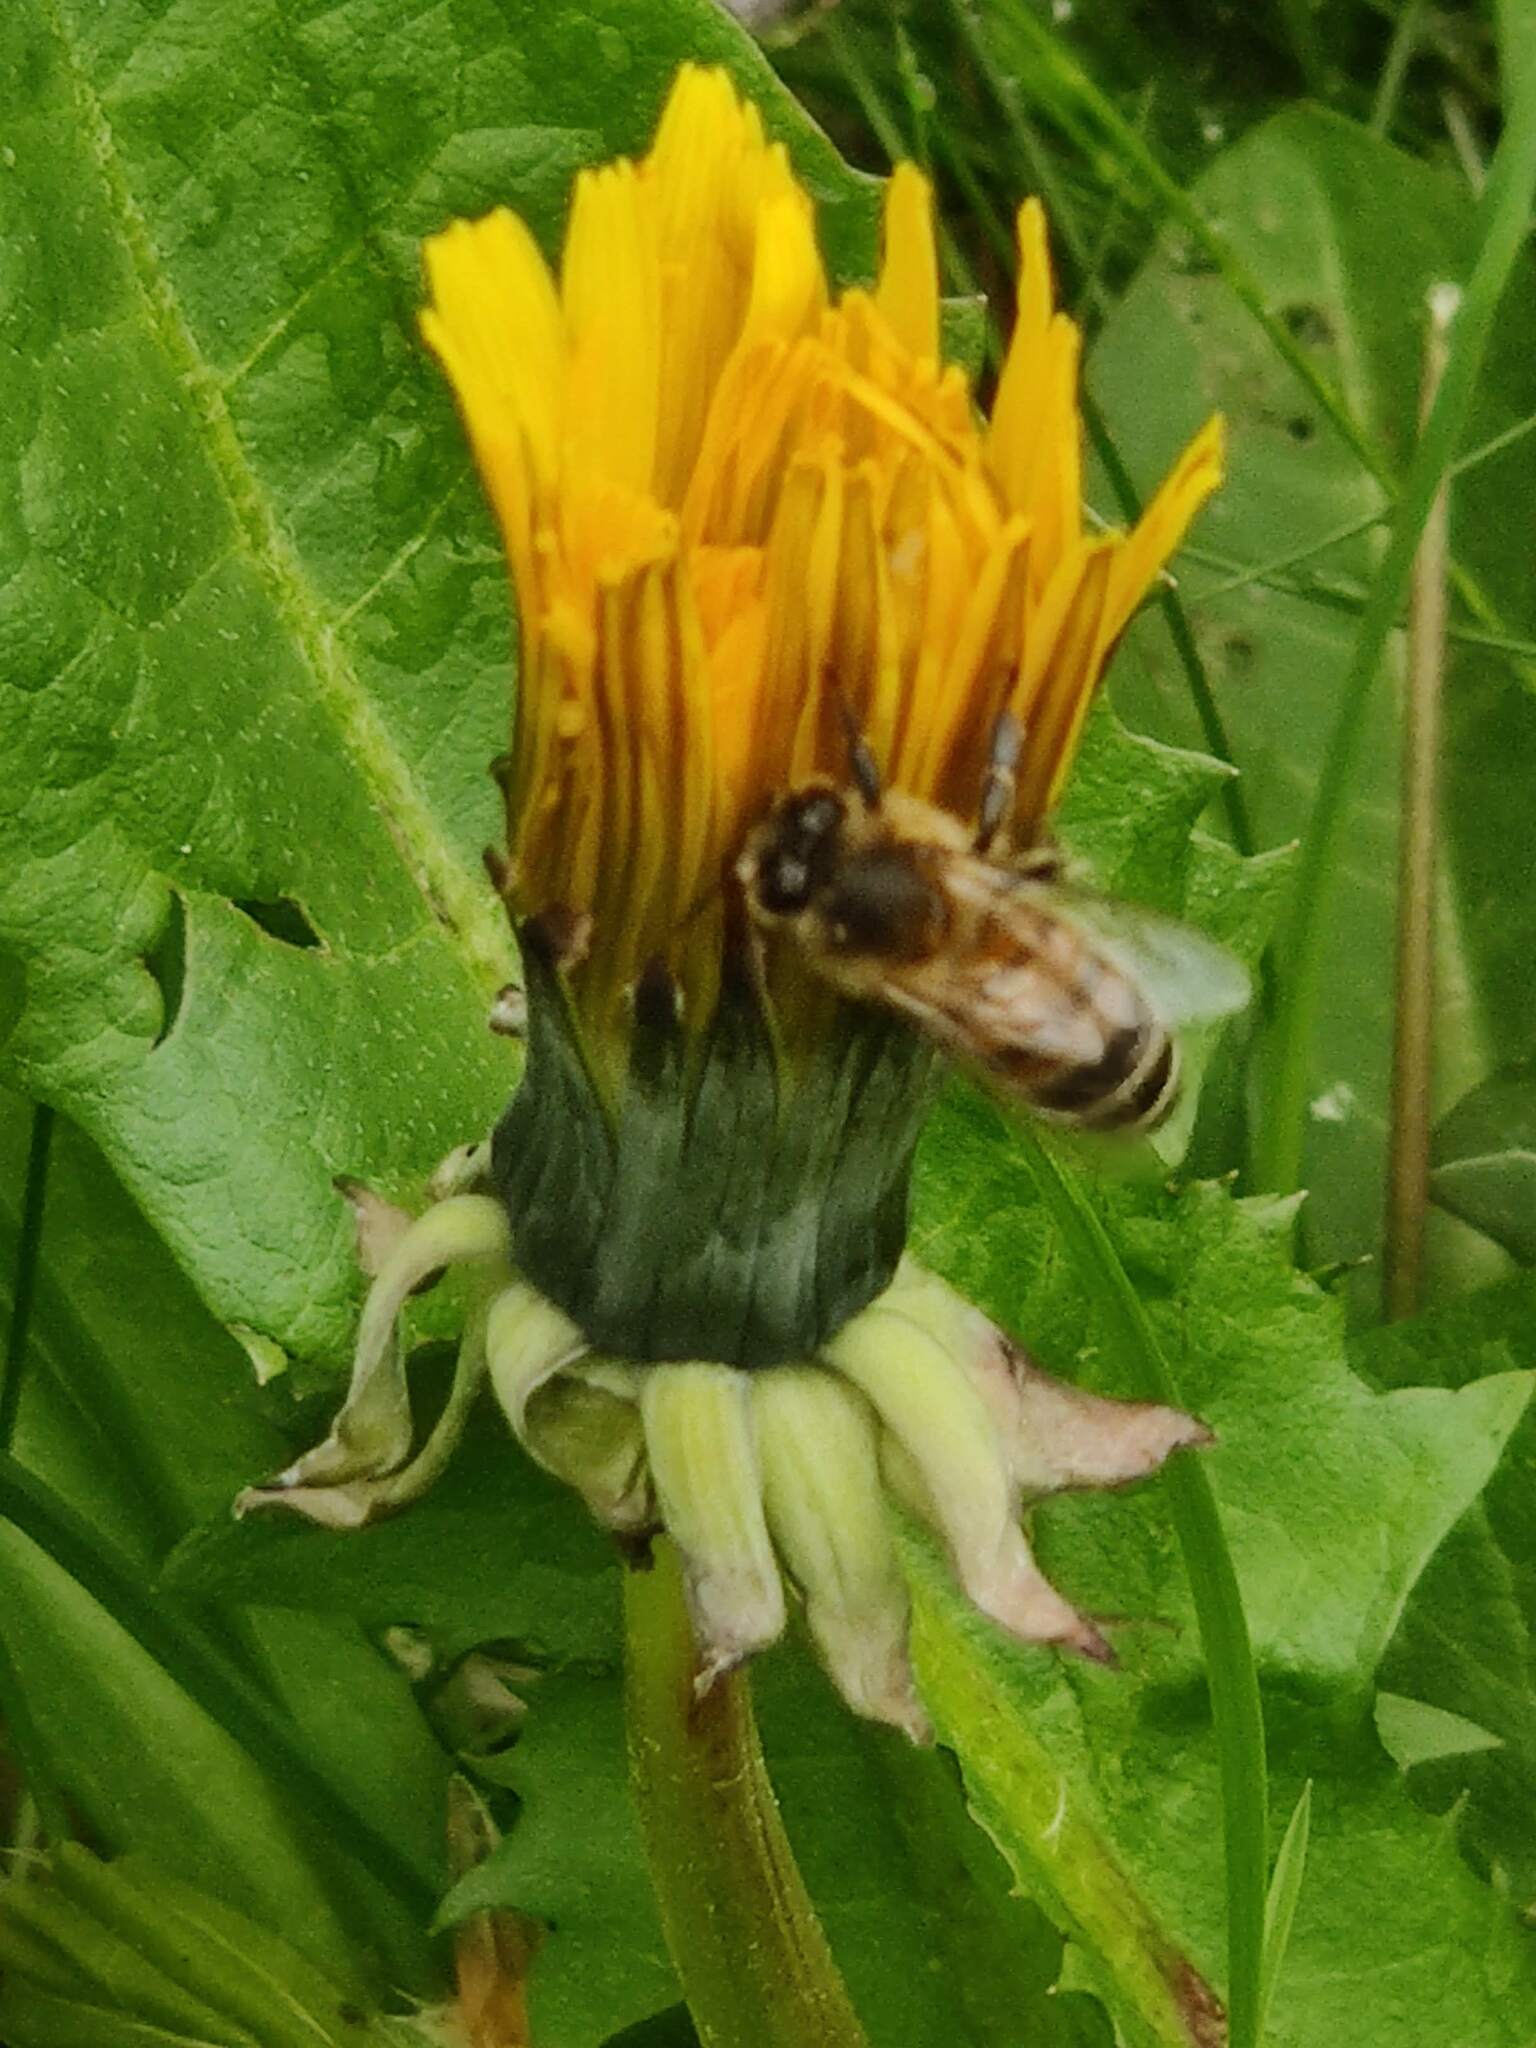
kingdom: Animalia
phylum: Arthropoda
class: Insecta
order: Hymenoptera
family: Apidae
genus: Apis
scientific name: Apis mellifera
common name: Honey bee
